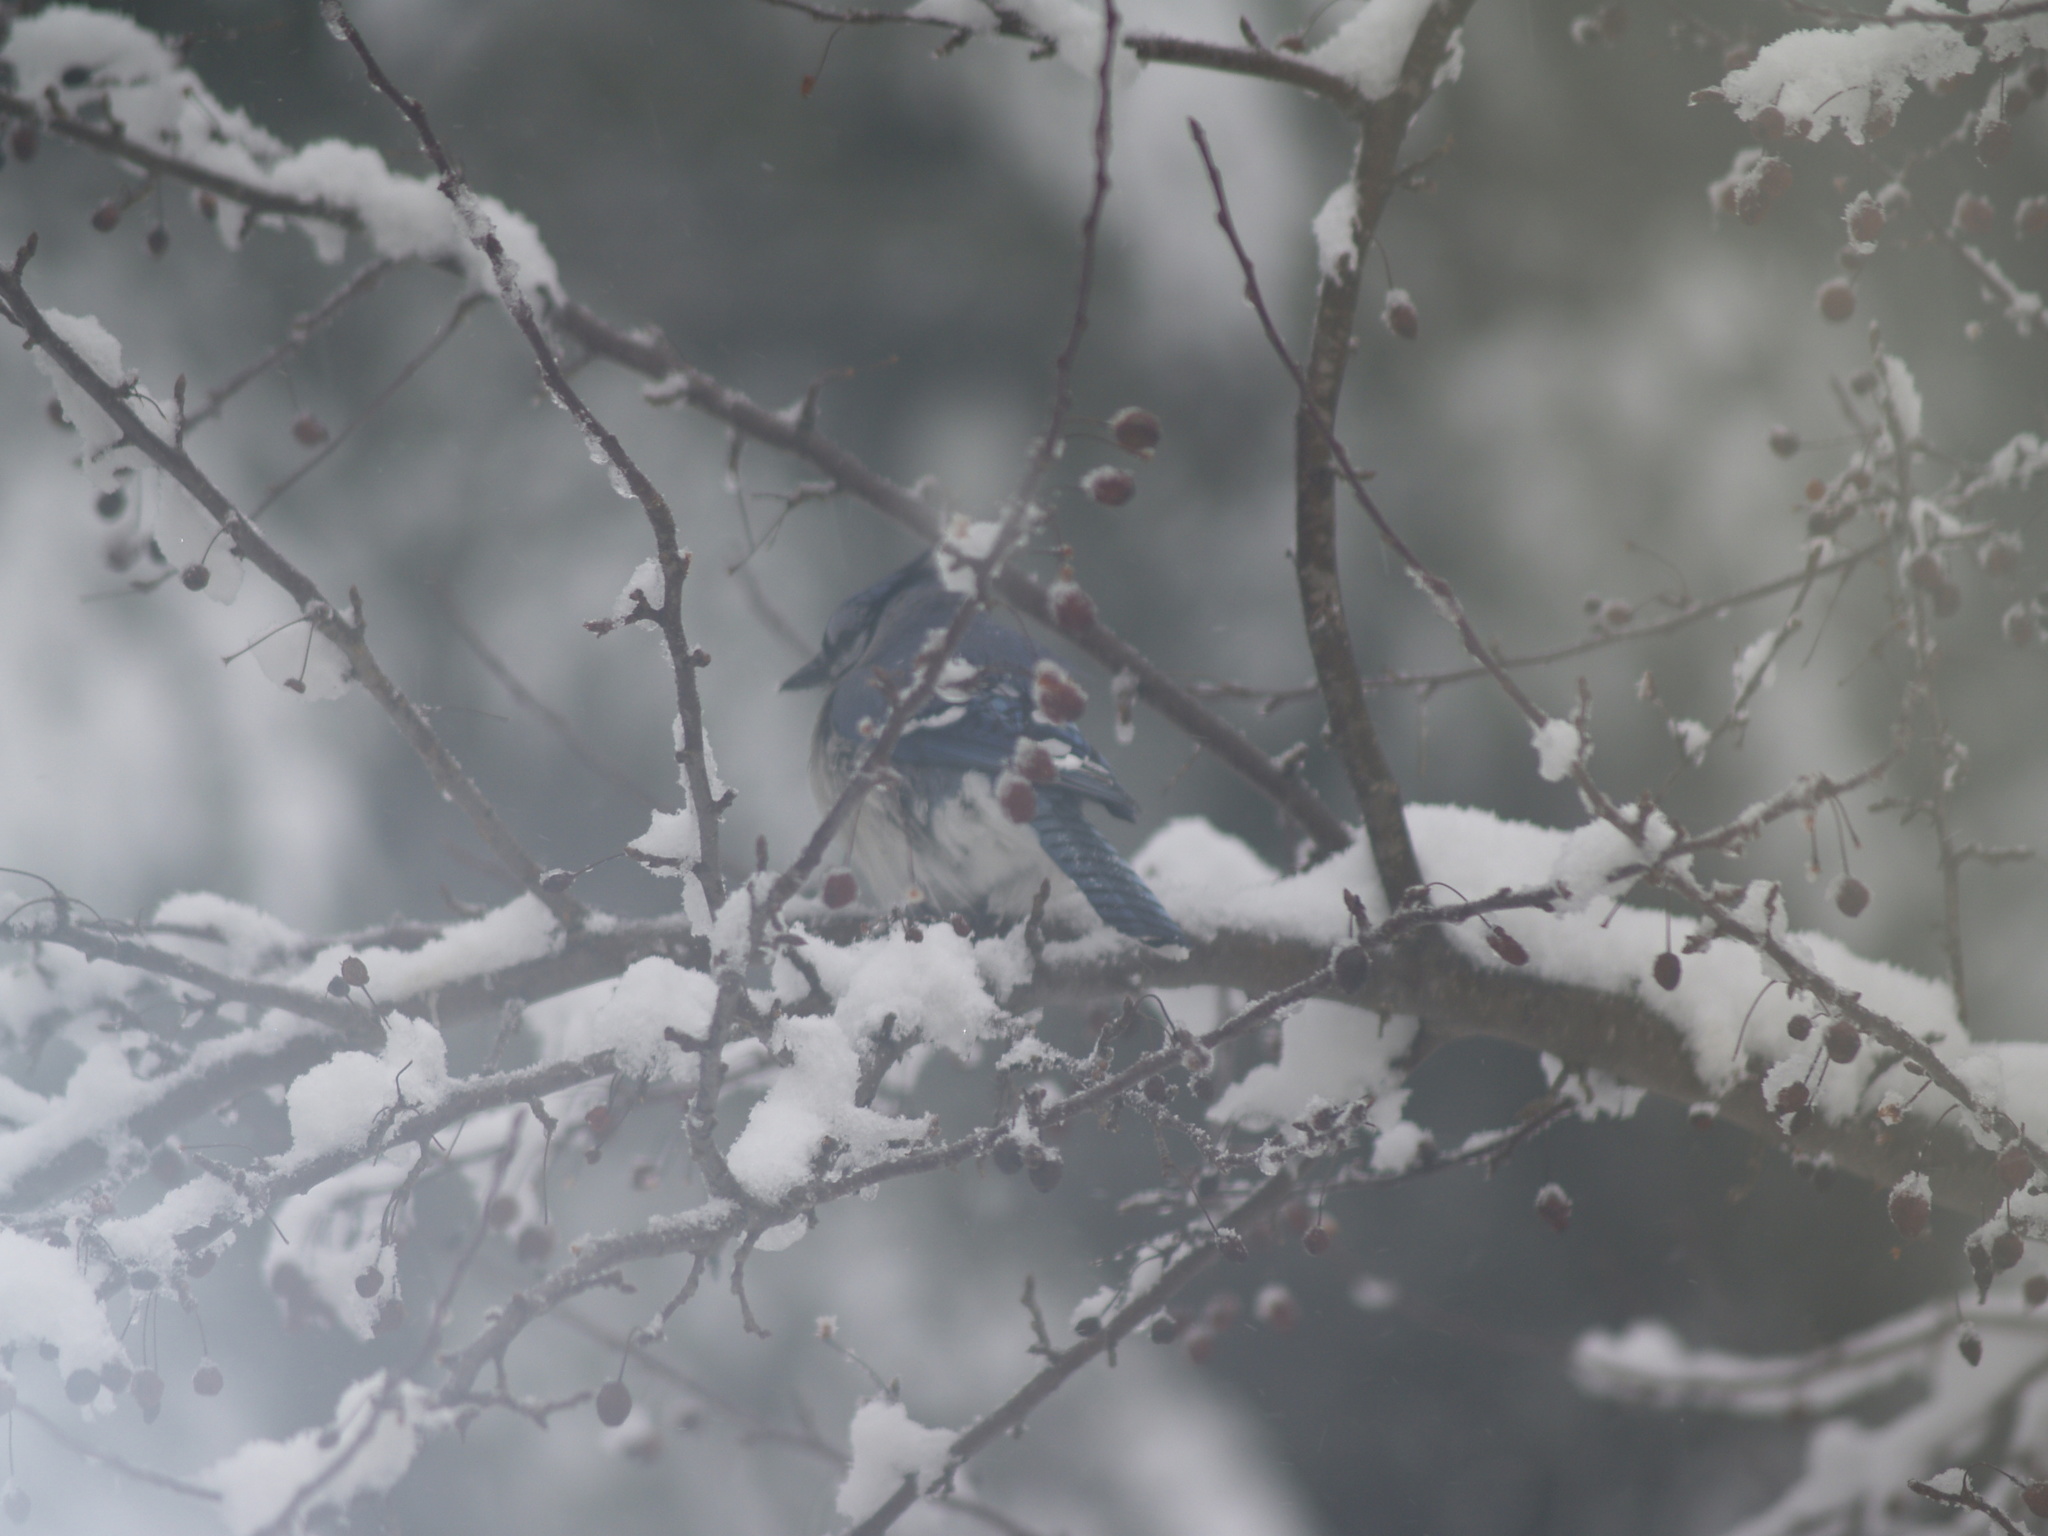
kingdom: Animalia
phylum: Chordata
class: Aves
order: Passeriformes
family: Corvidae
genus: Cyanocitta
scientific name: Cyanocitta cristata
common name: Blue jay
